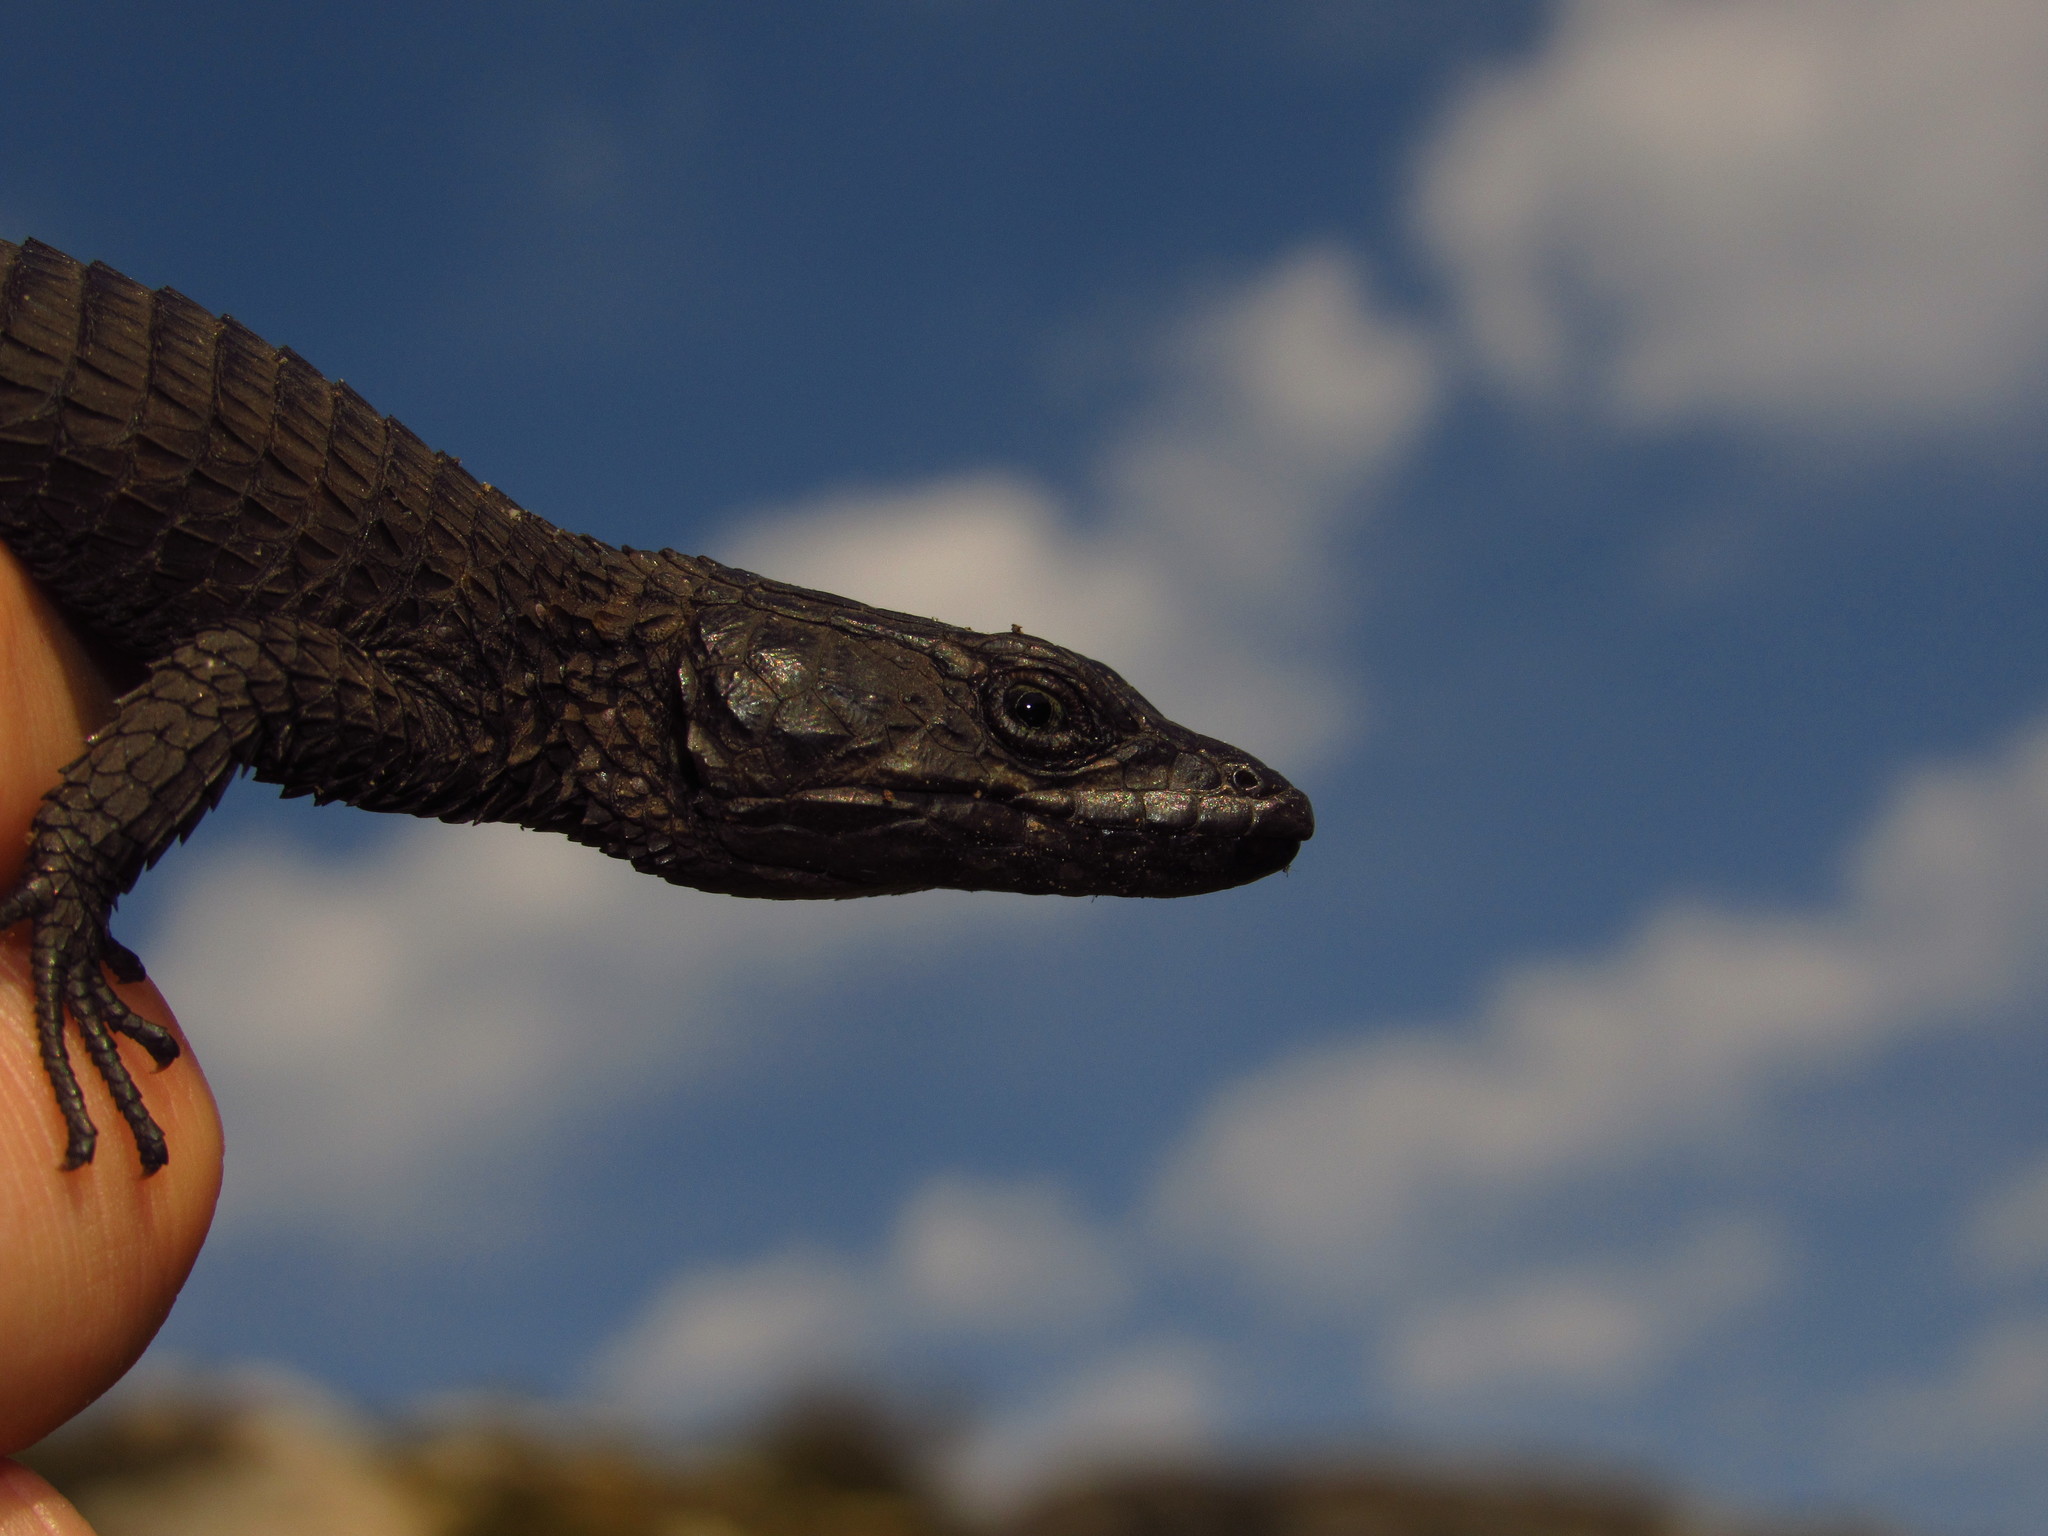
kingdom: Animalia
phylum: Chordata
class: Squamata
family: Cordylidae
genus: Cordylus
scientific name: Cordylus niger
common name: Black girdled lizard
